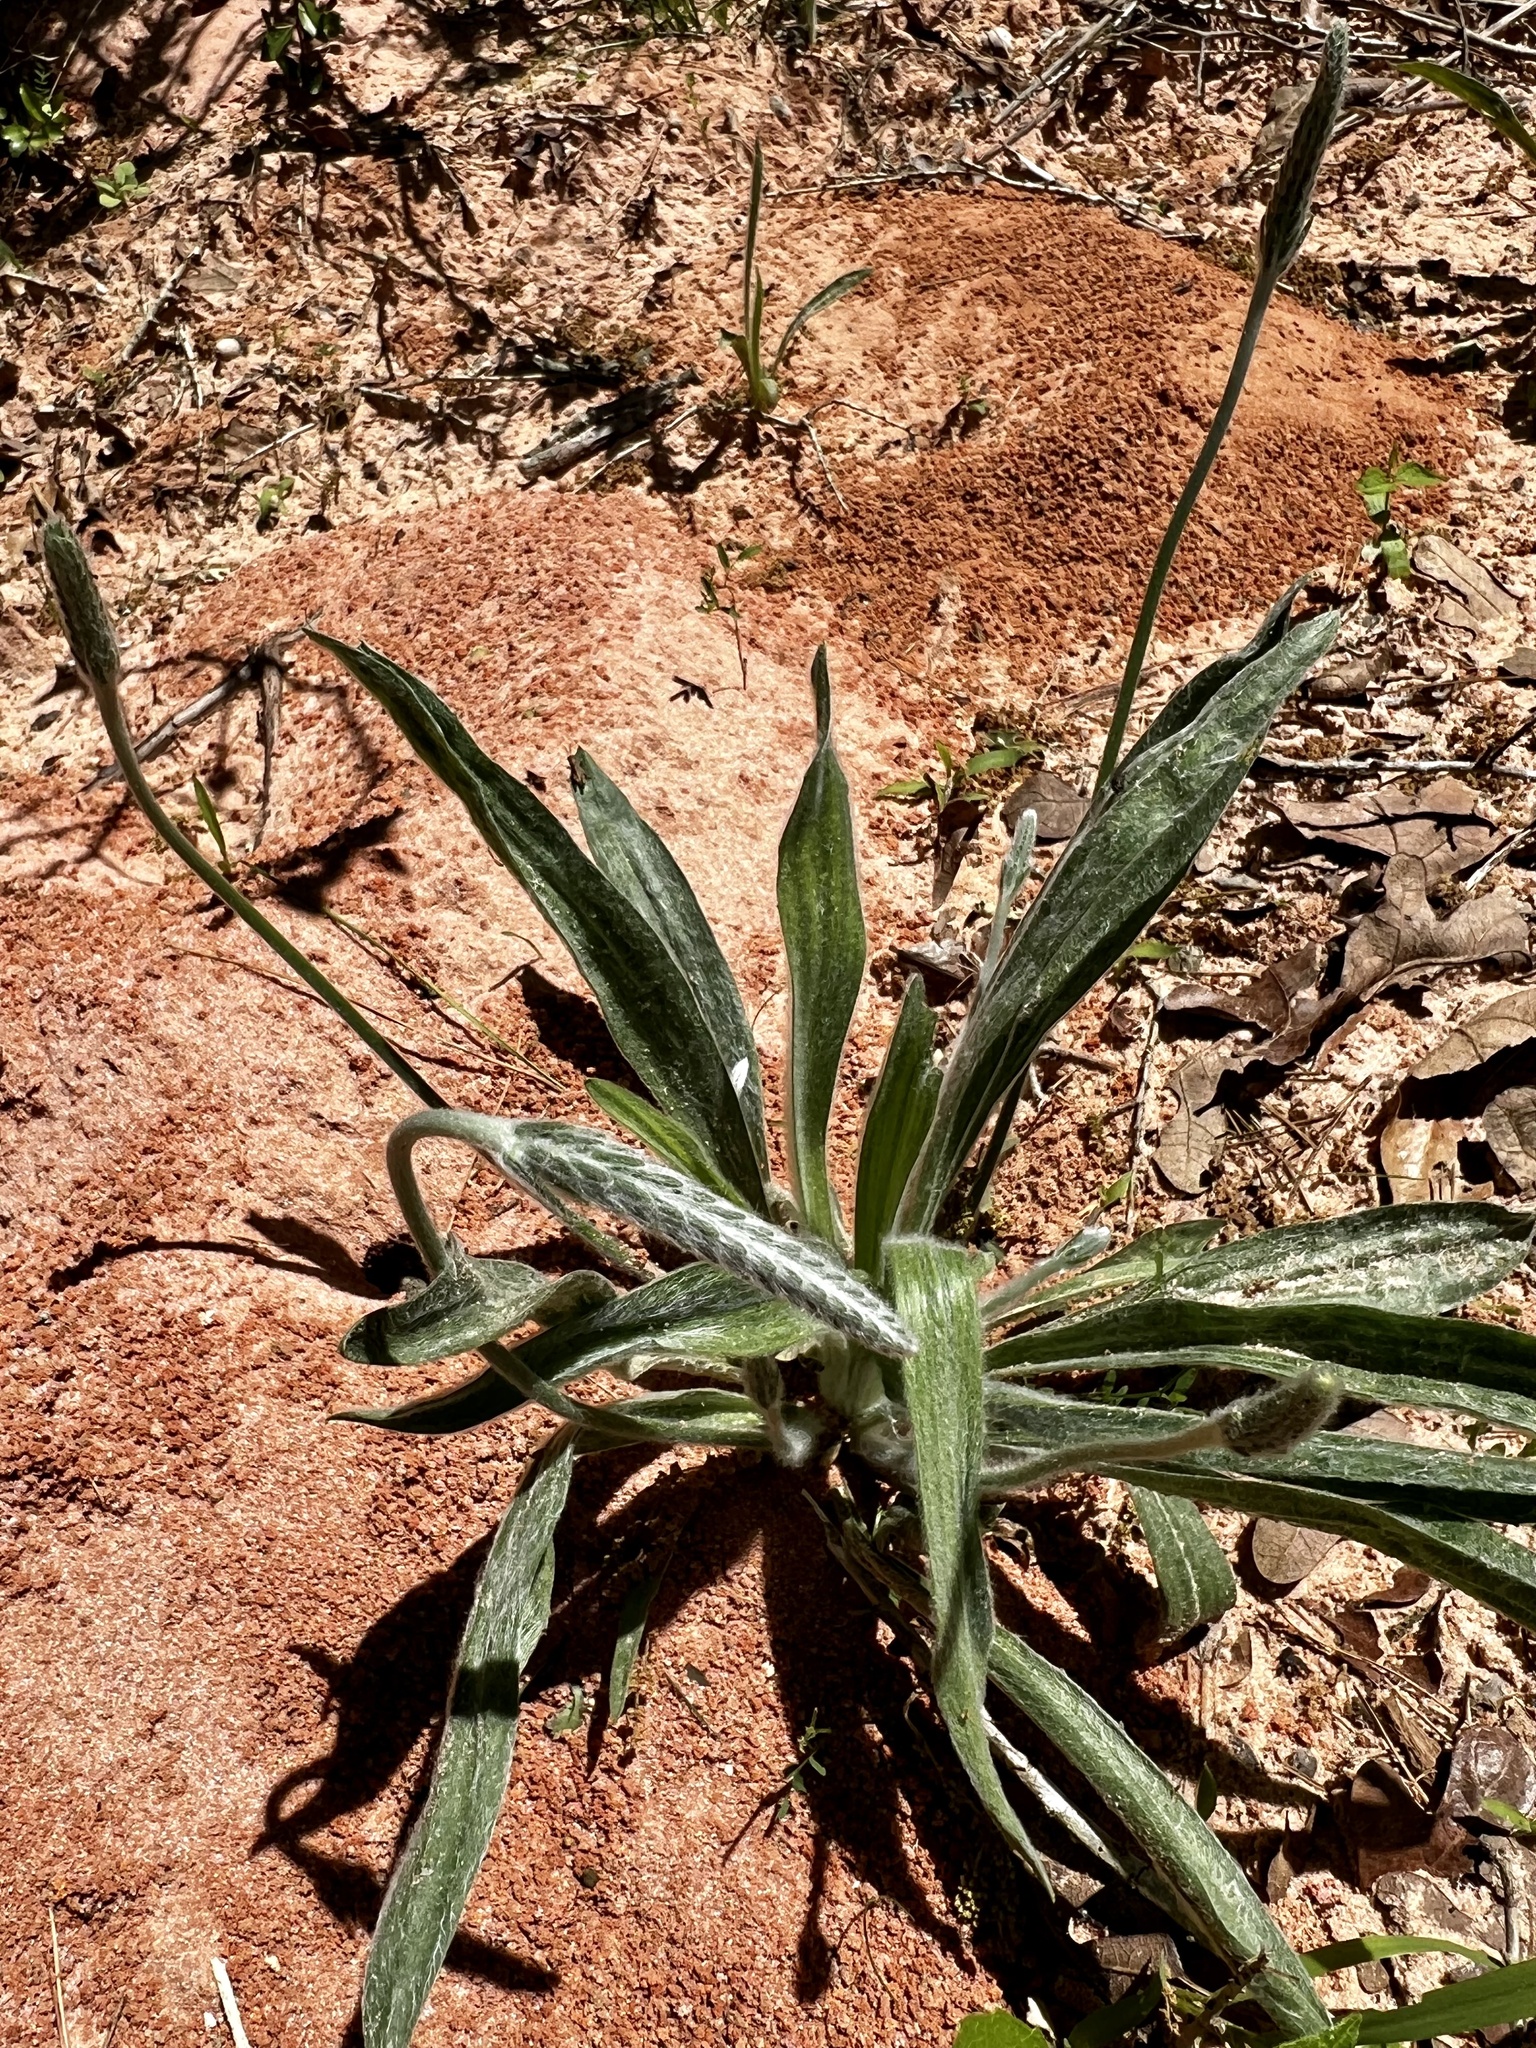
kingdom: Plantae
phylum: Tracheophyta
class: Magnoliopsida
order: Lamiales
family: Plantaginaceae
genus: Plantago
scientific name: Plantago wrightiana
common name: Wright's plantain
